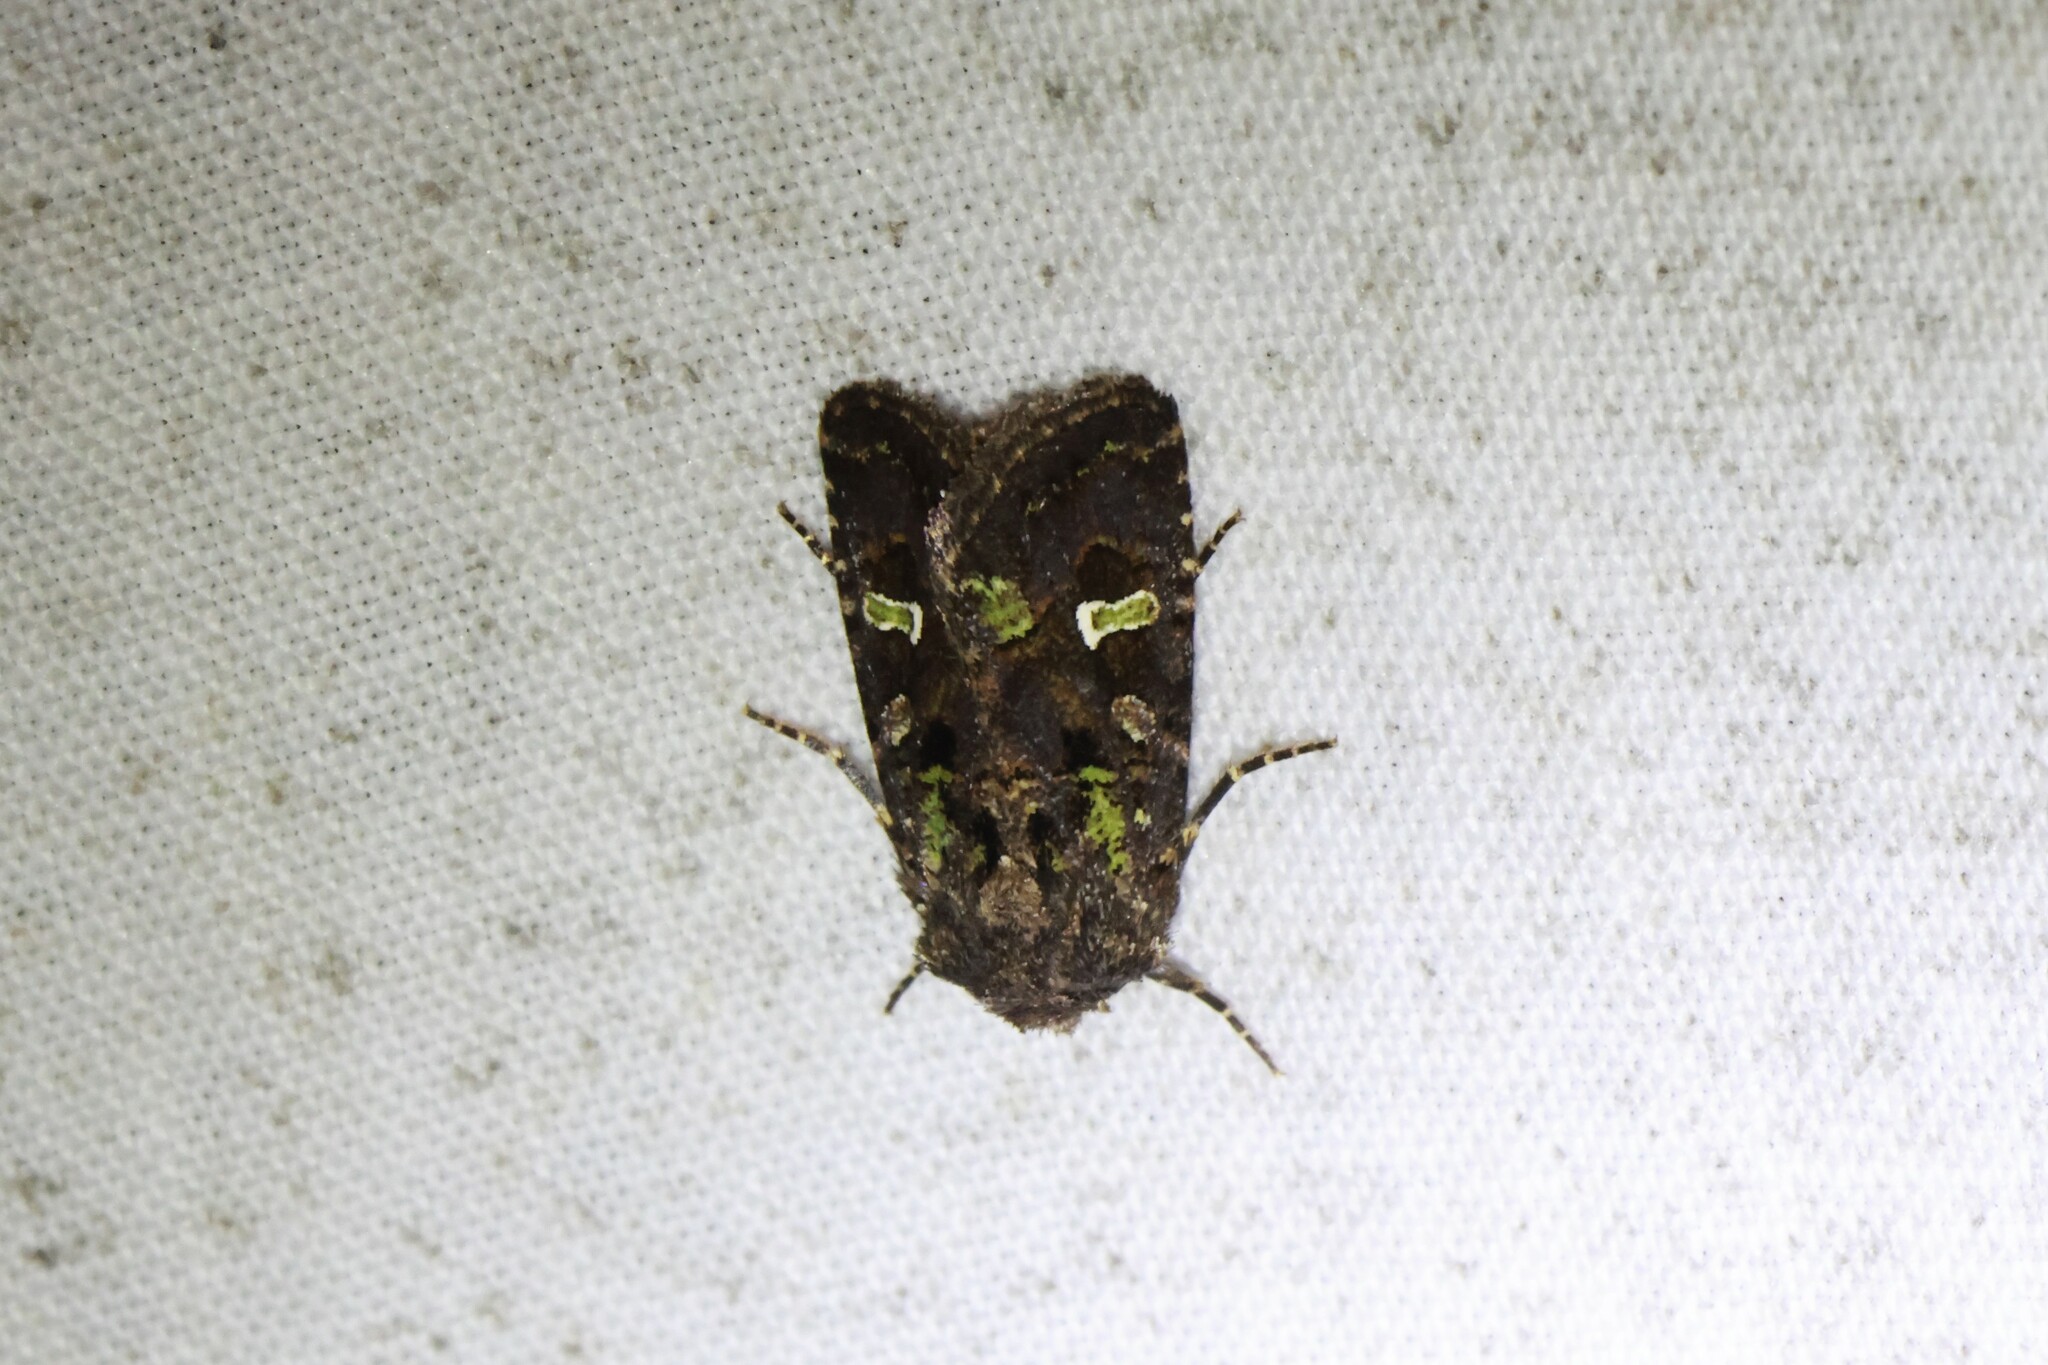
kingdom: Animalia
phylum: Arthropoda
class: Insecta
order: Lepidoptera
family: Noctuidae
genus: Lacinipolia
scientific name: Lacinipolia renigera
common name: Kidney-spotted minor
